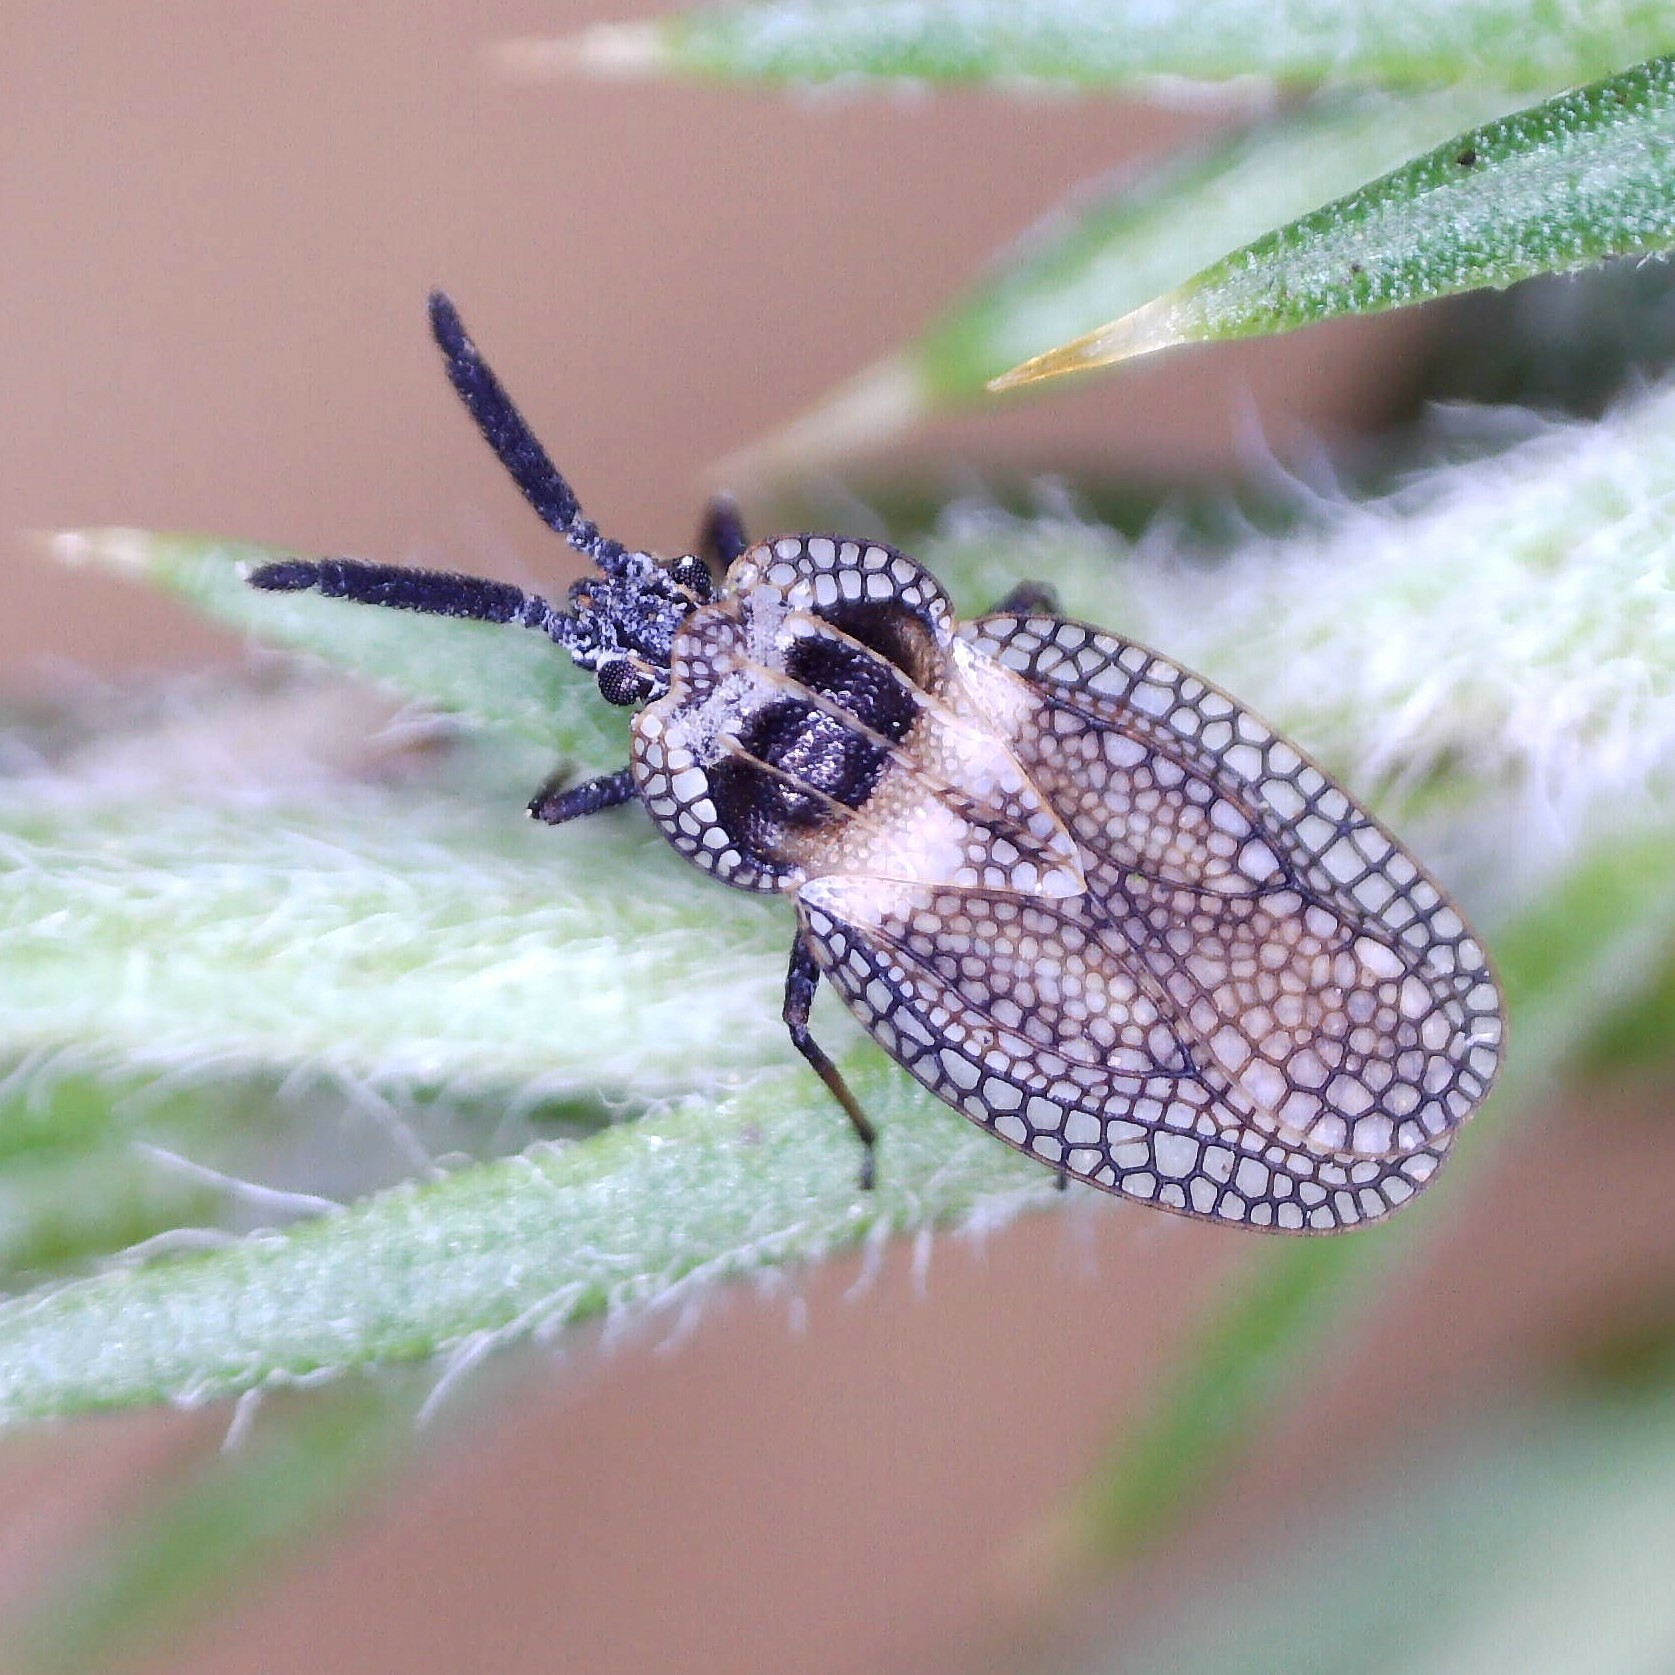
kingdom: Animalia
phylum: Arthropoda
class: Insecta
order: Hemiptera
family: Tingidae
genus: Dictyonota
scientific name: Dictyonota strichnocera
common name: Gorse lacebug
